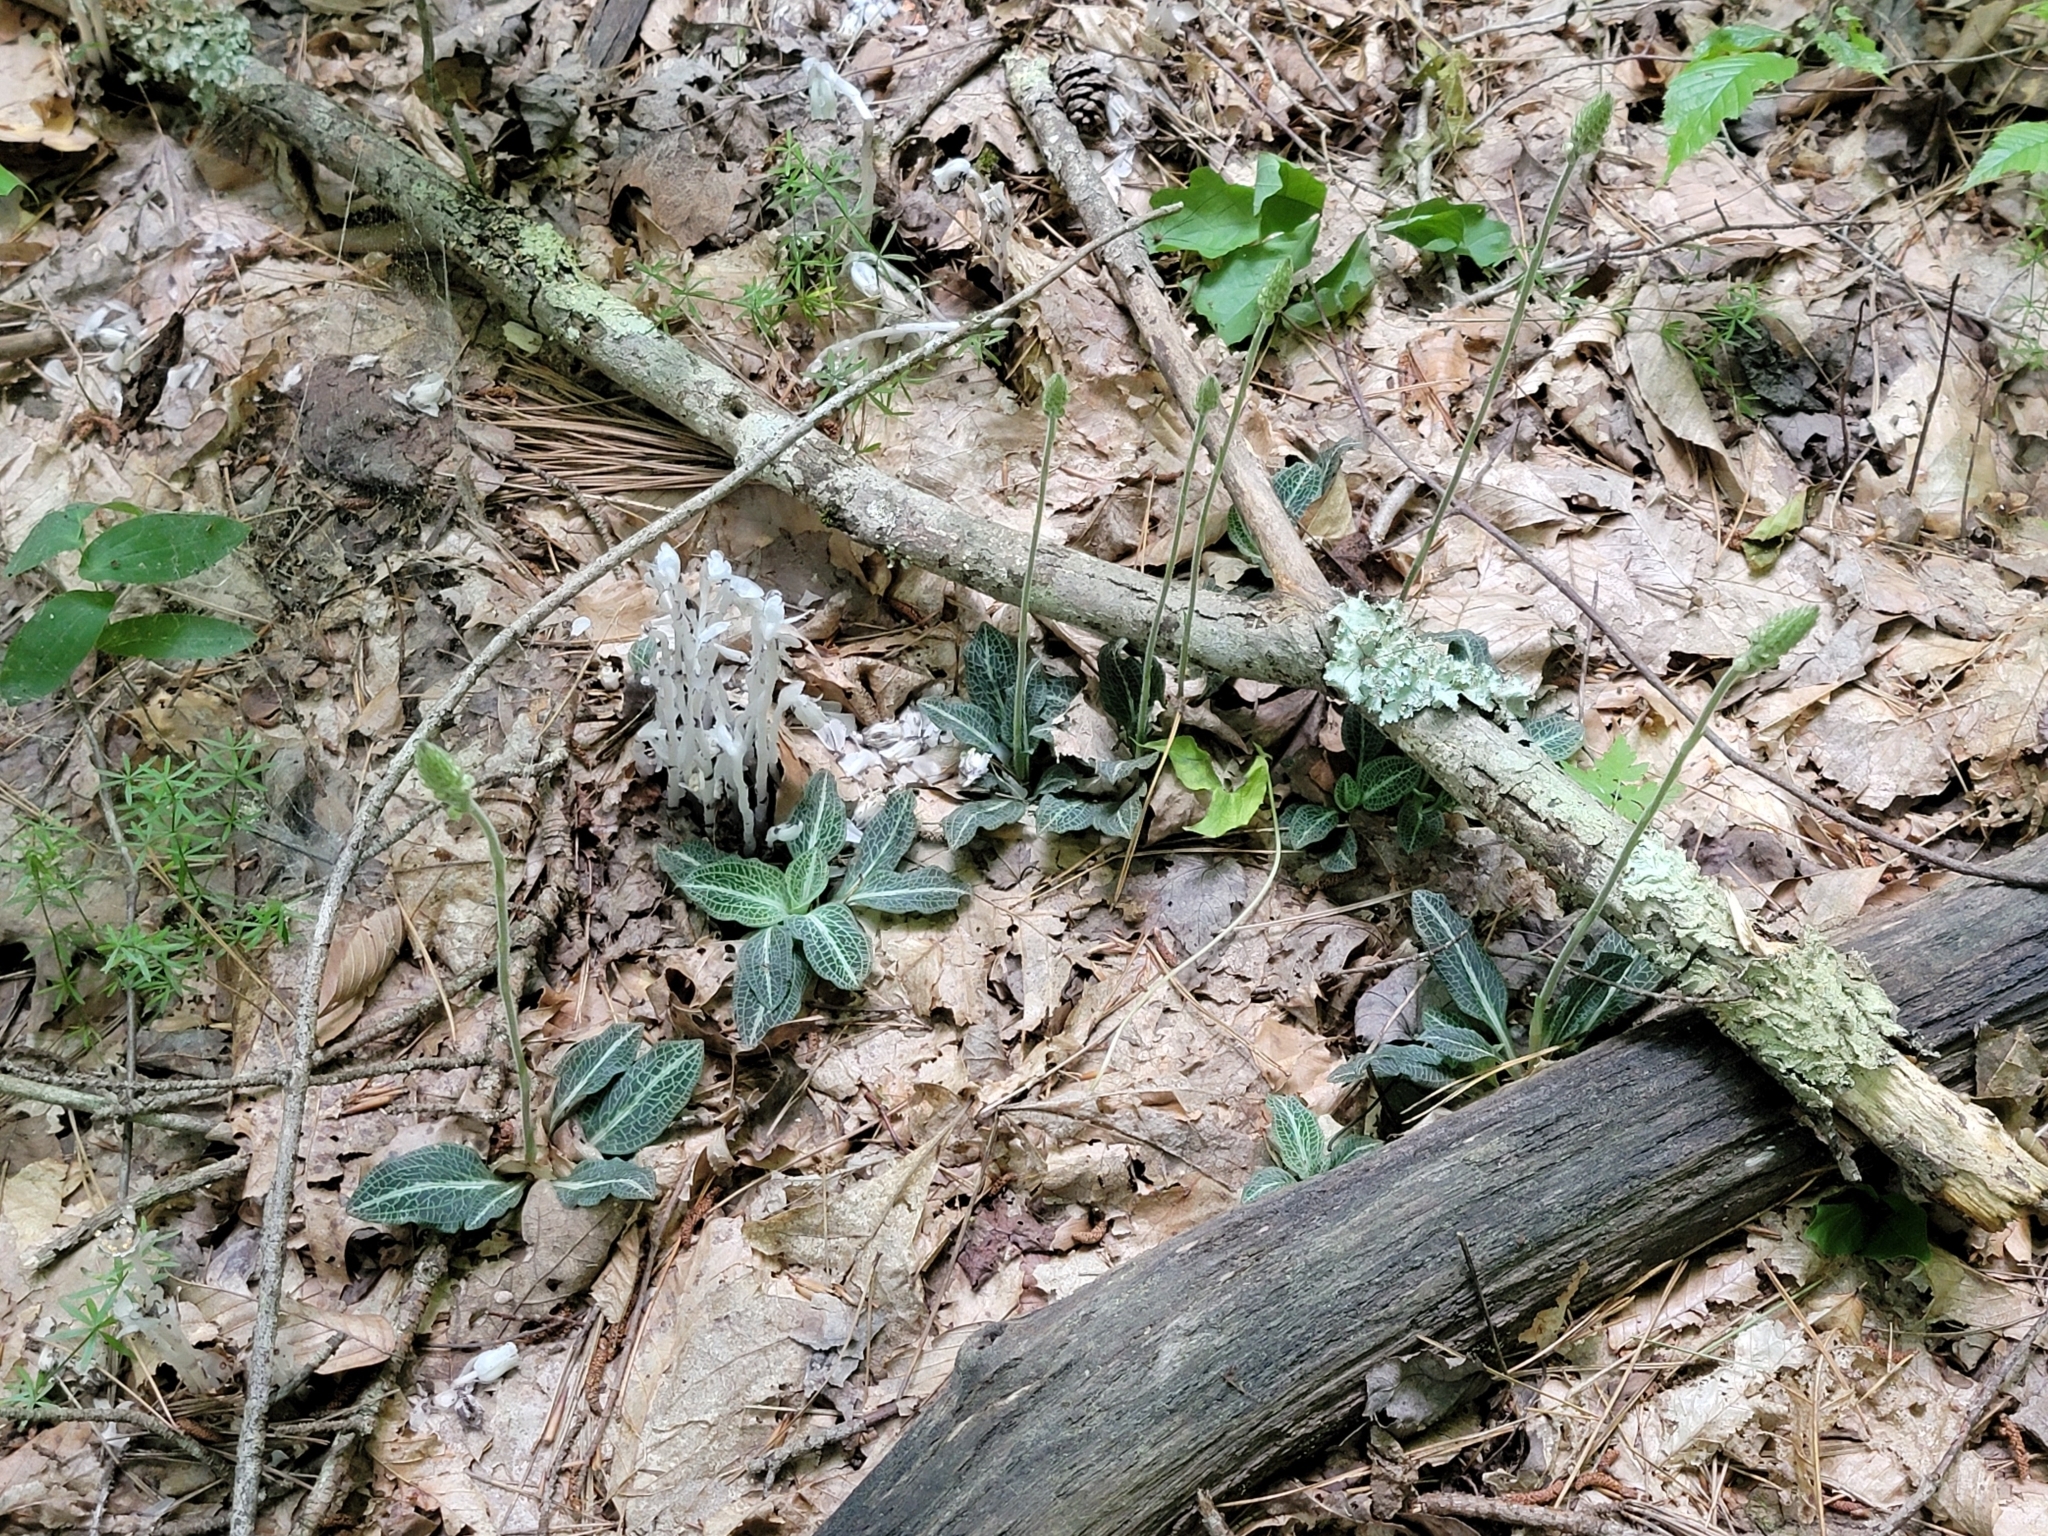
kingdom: Plantae
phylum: Tracheophyta
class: Liliopsida
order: Asparagales
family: Orchidaceae
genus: Goodyera
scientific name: Goodyera pubescens
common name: Downy rattlesnake-plantain
